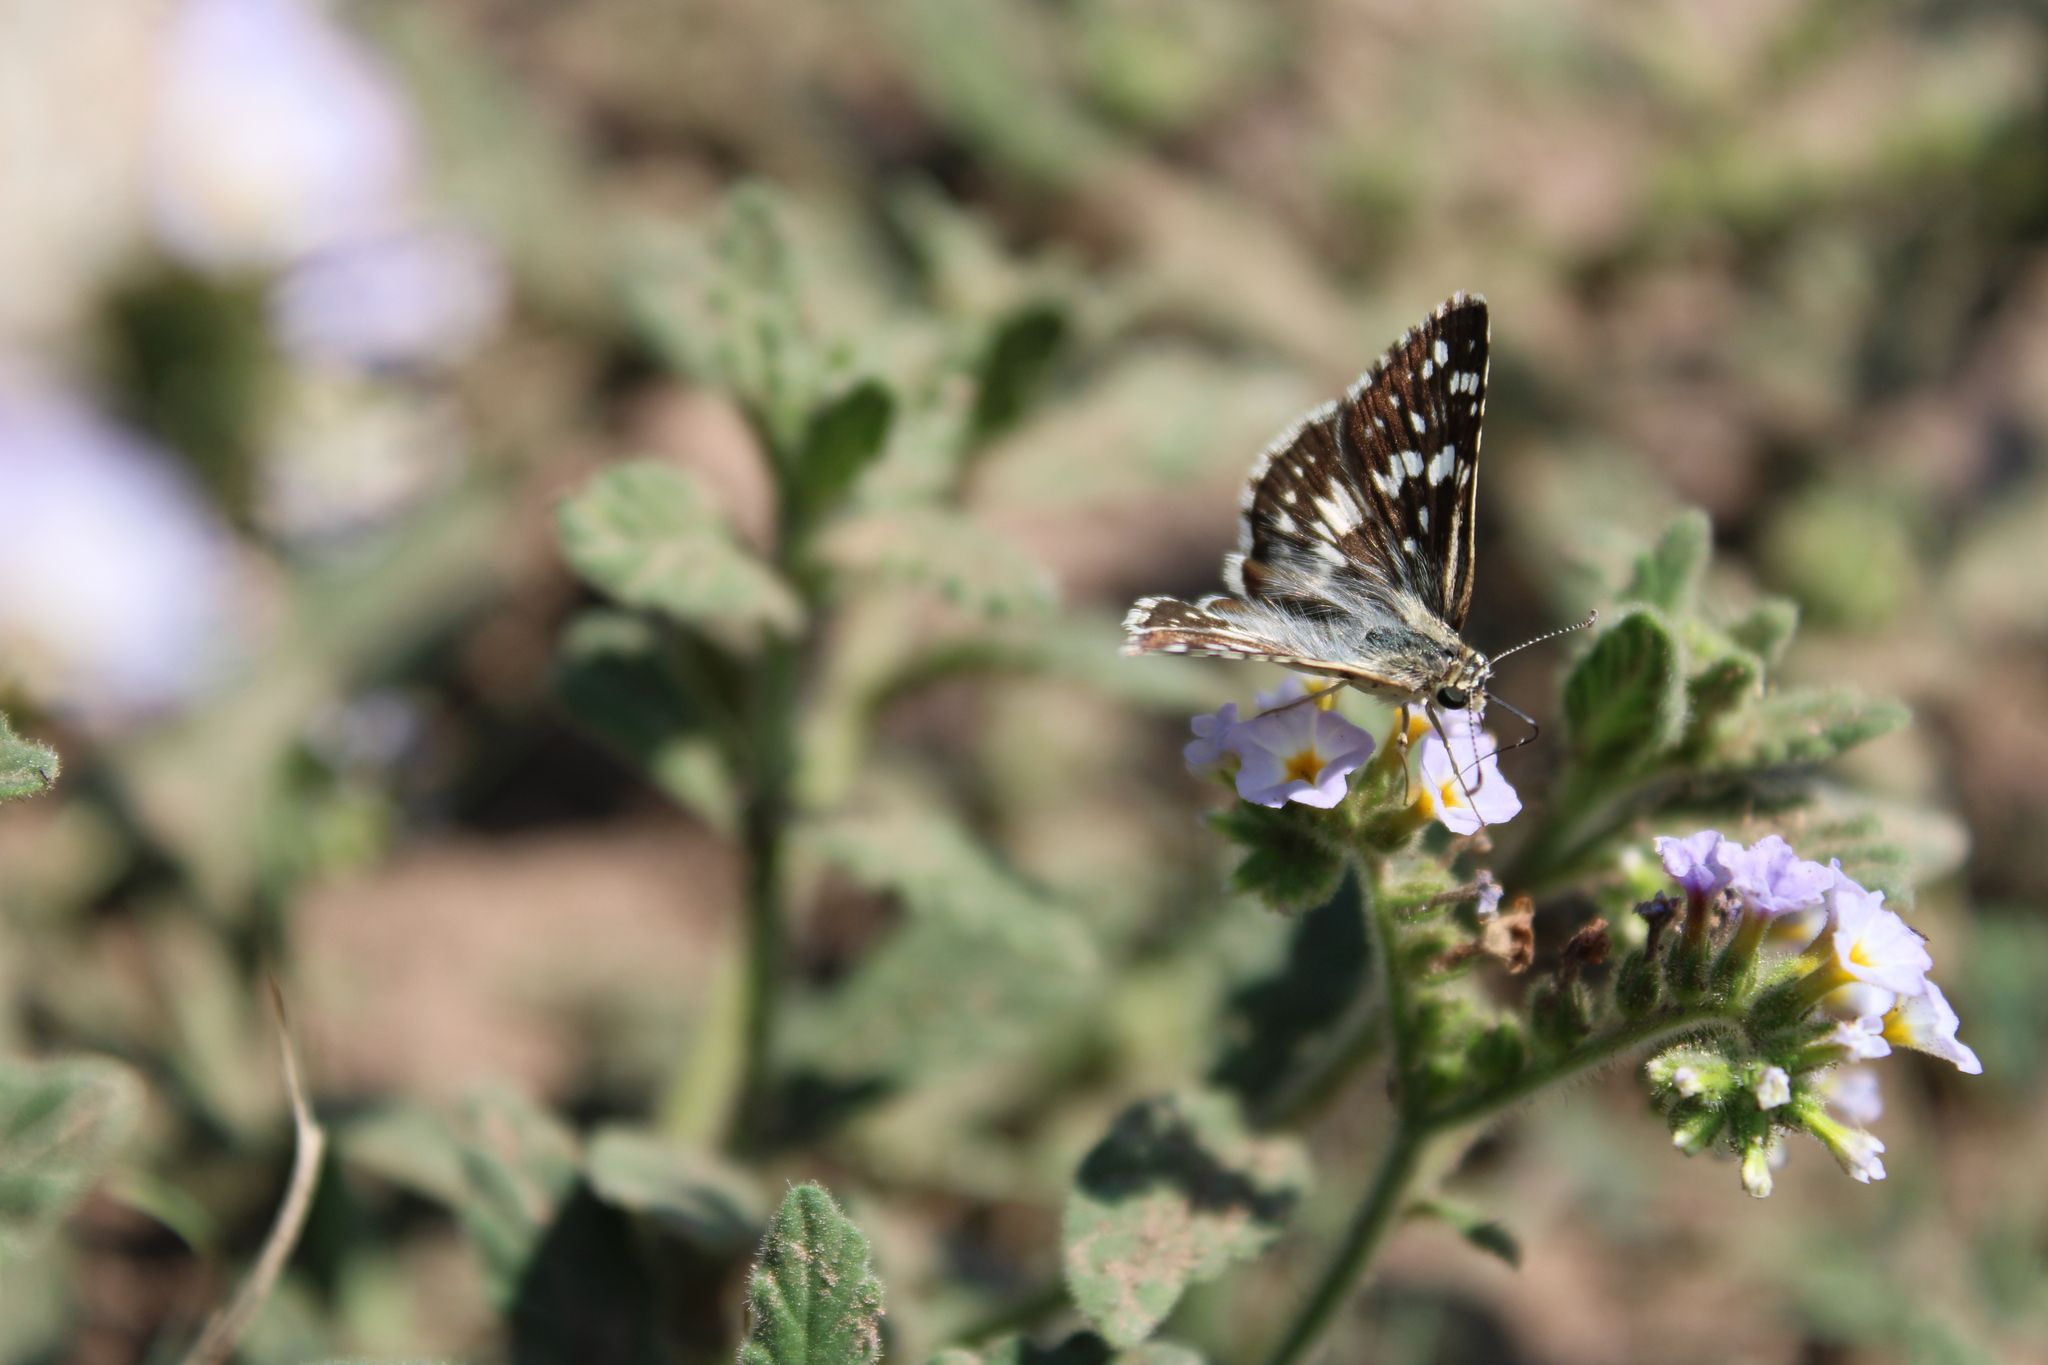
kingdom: Animalia
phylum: Arthropoda
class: Insecta
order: Lepidoptera
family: Hesperiidae
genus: Burnsius
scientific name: Burnsius orcynoides
